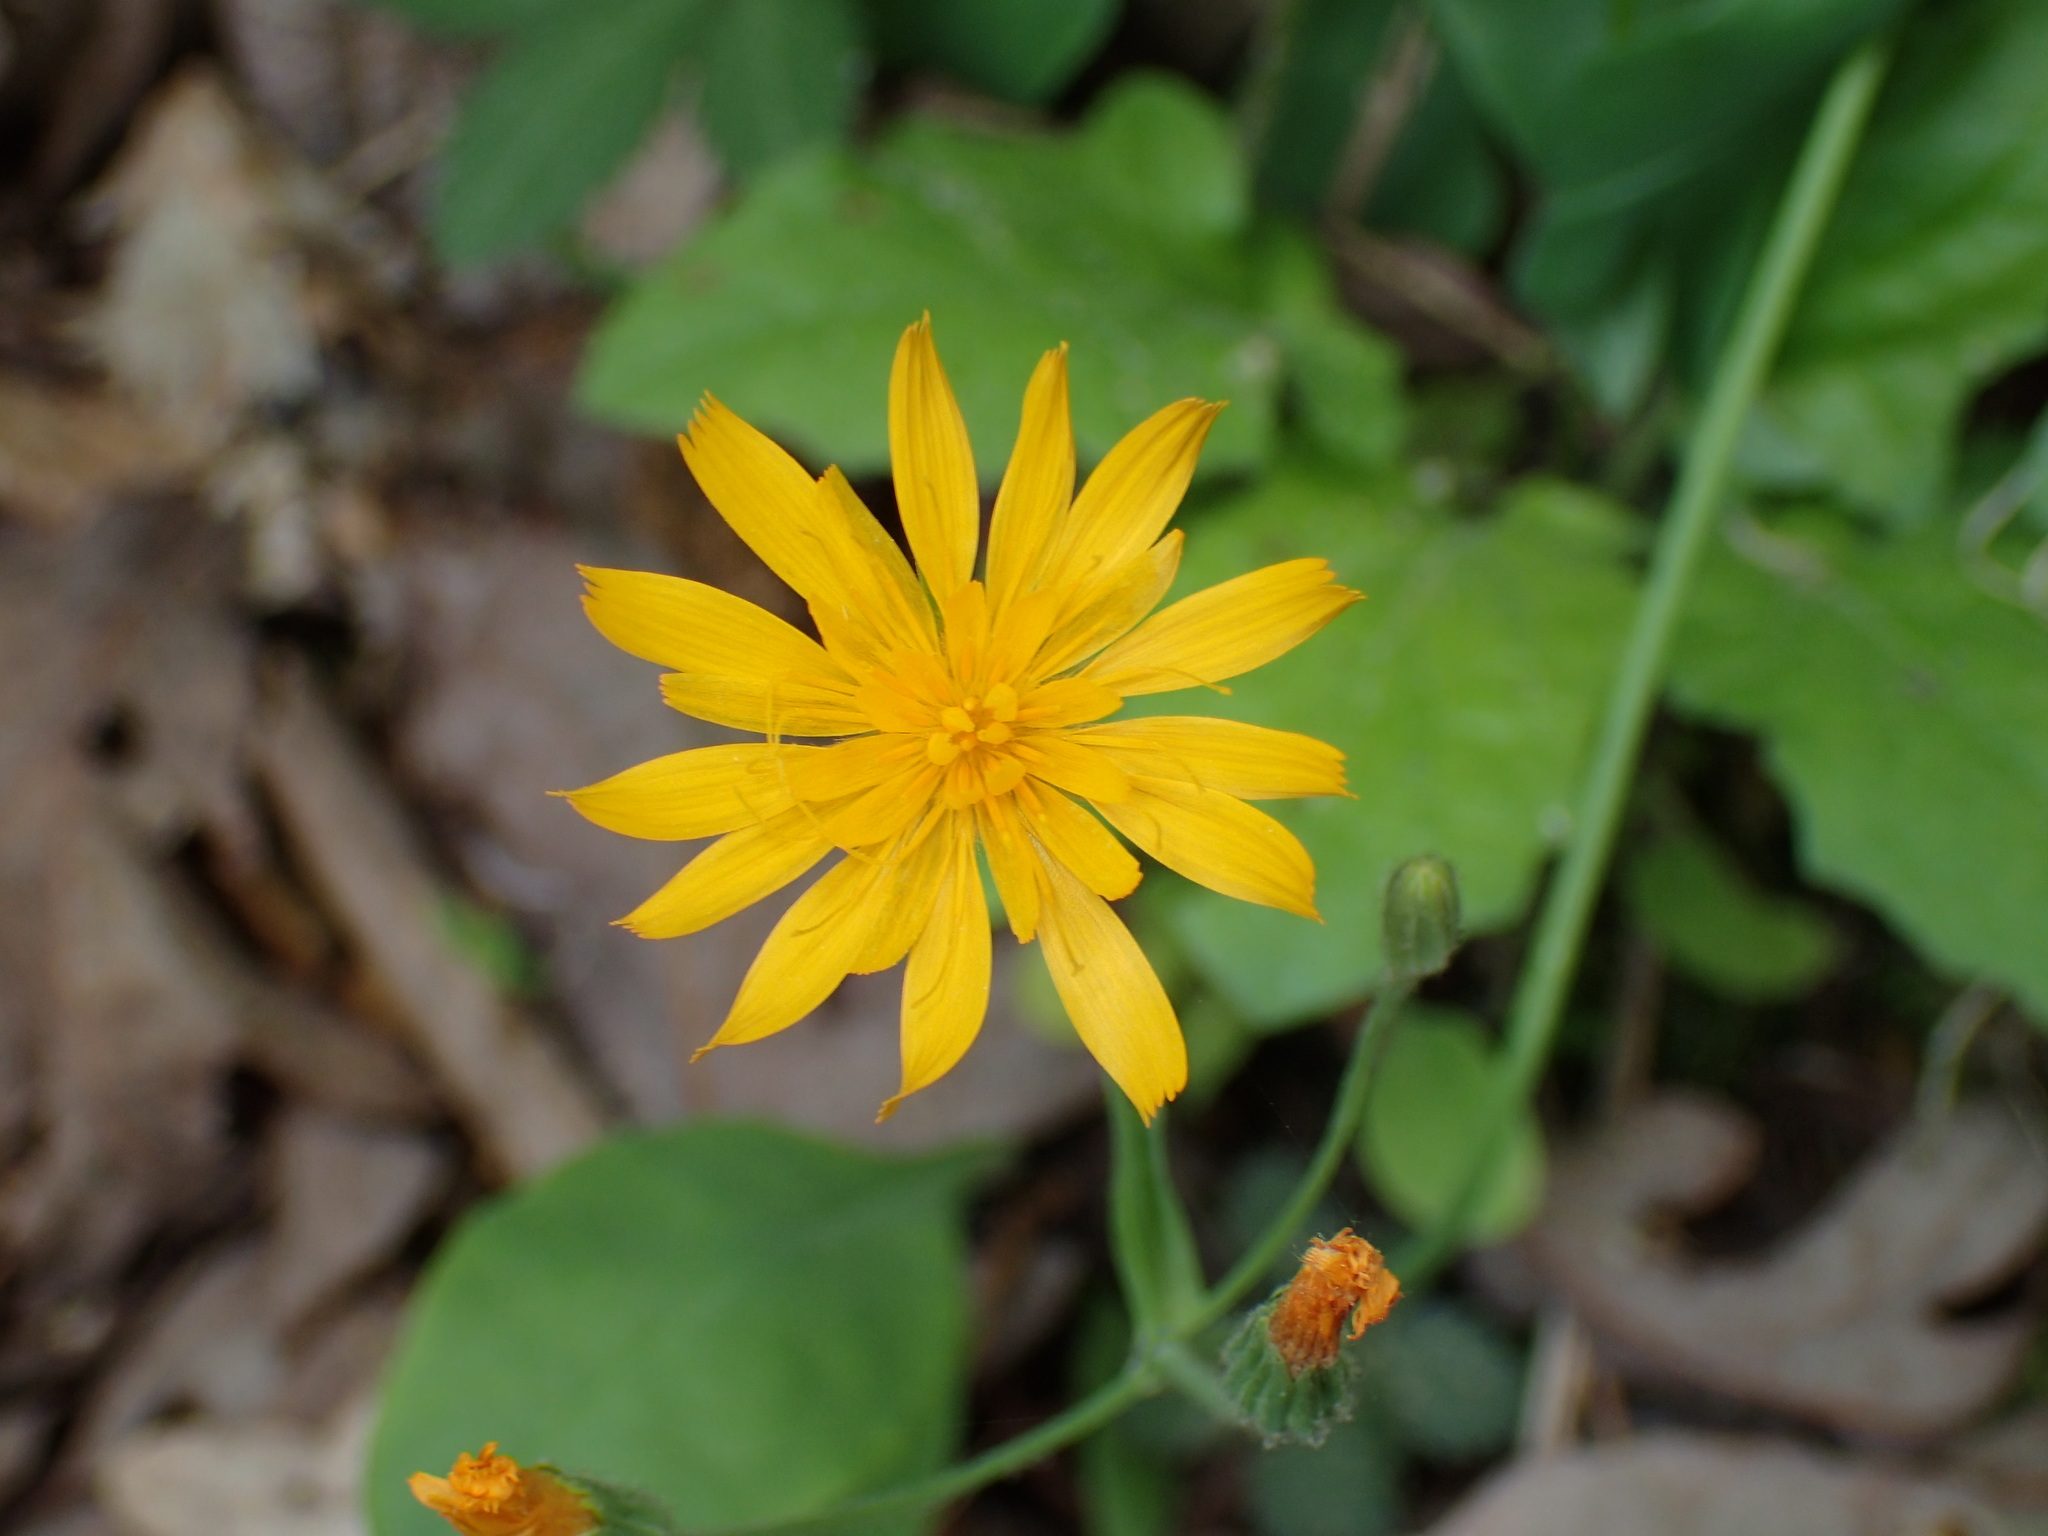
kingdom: Plantae
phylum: Tracheophyta
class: Magnoliopsida
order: Asterales
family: Asteraceae
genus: Krigia
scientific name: Krigia biflora
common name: Orange dwarf-dandelion
